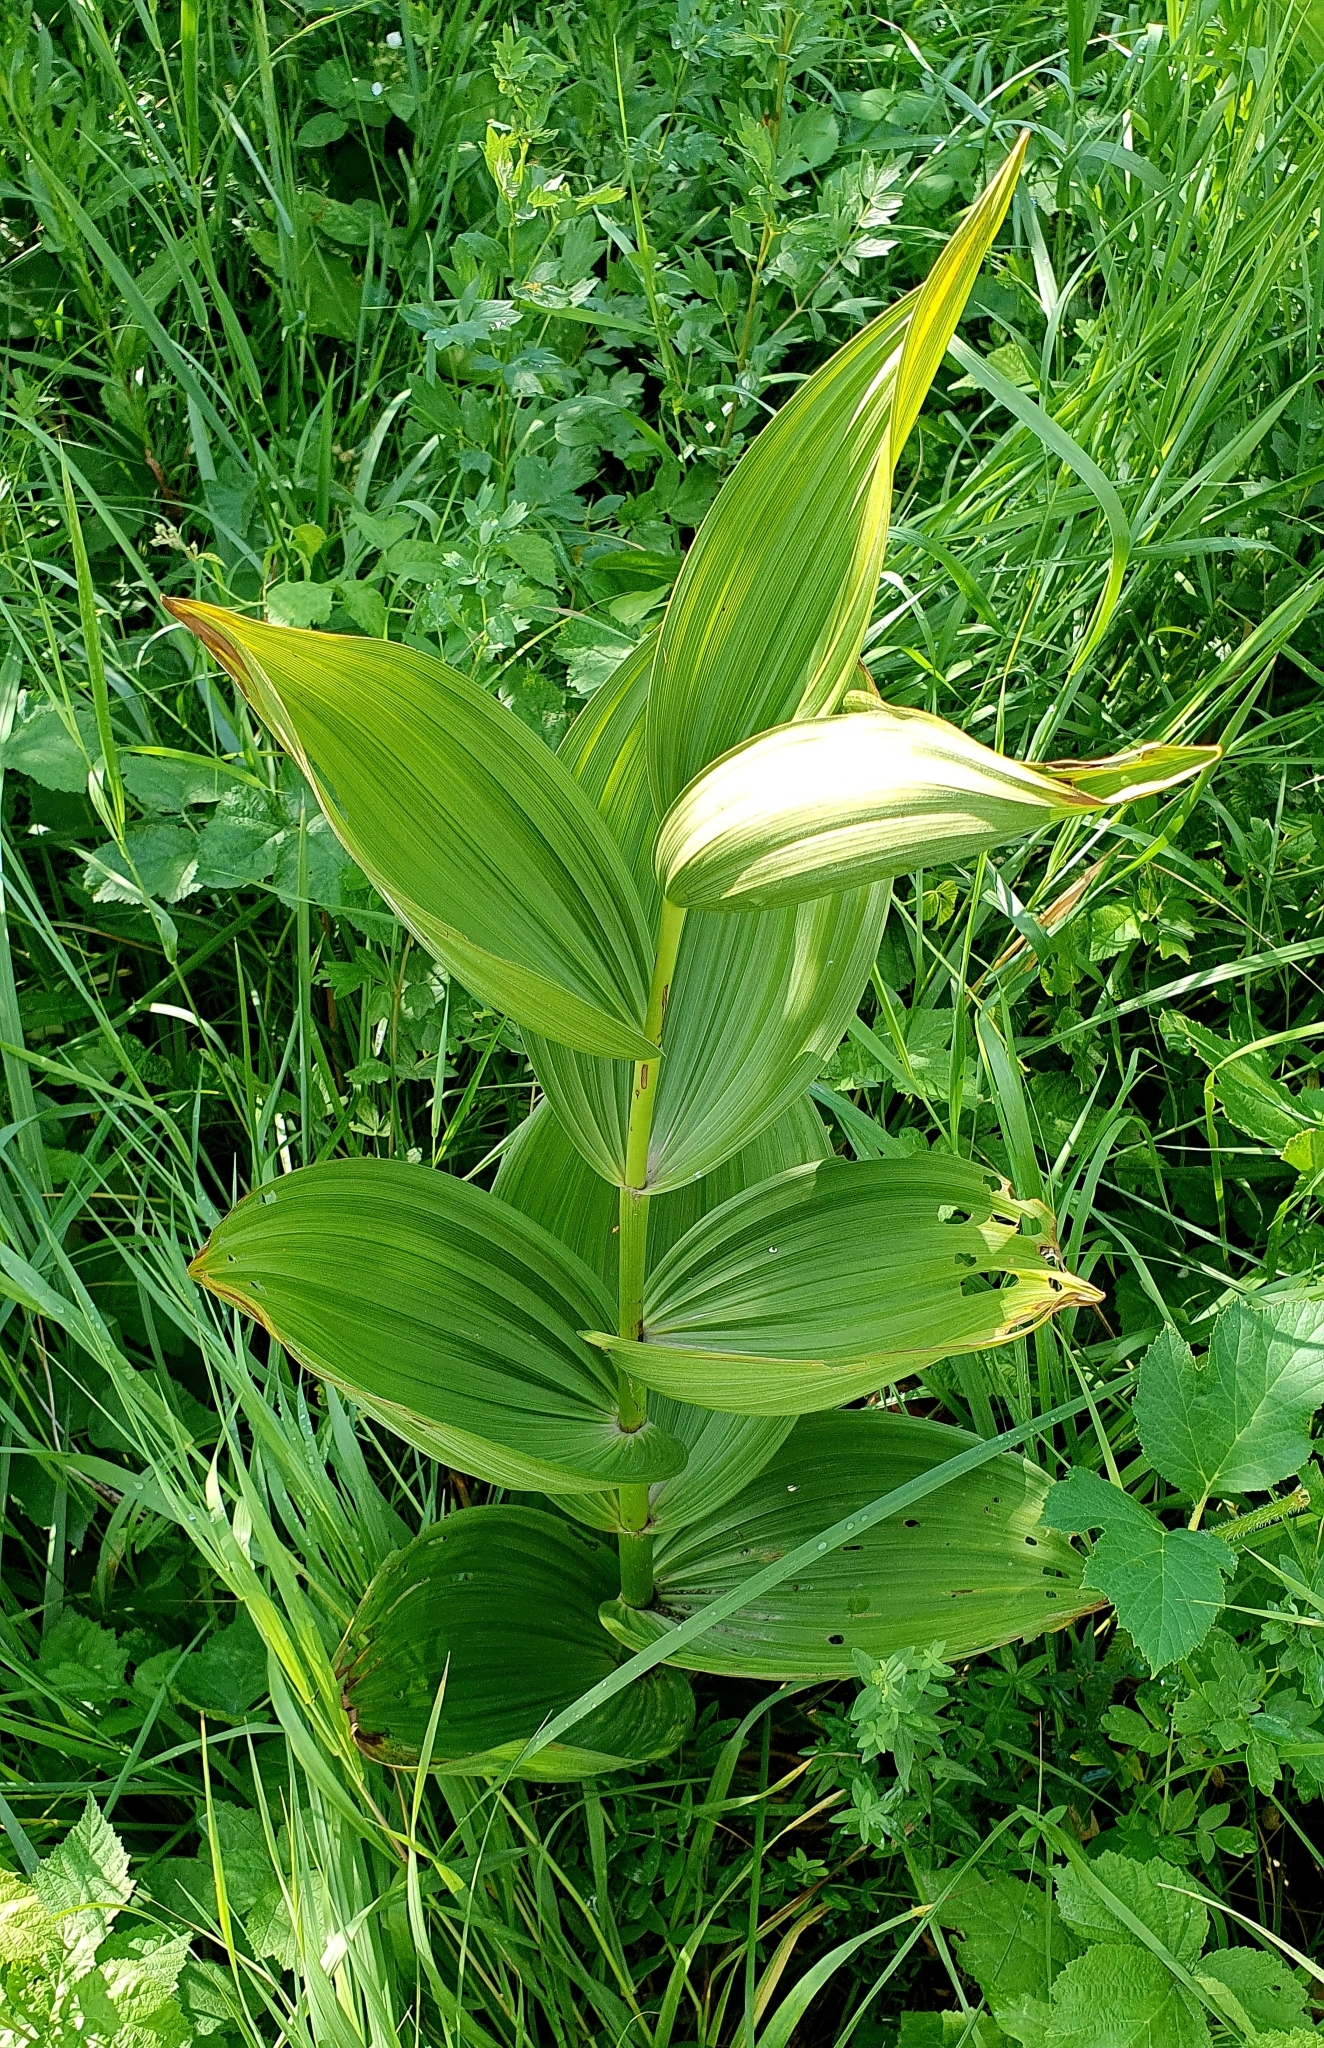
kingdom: Plantae
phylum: Tracheophyta
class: Liliopsida
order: Liliales
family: Melanthiaceae
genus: Veratrum
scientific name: Veratrum lobelianum
